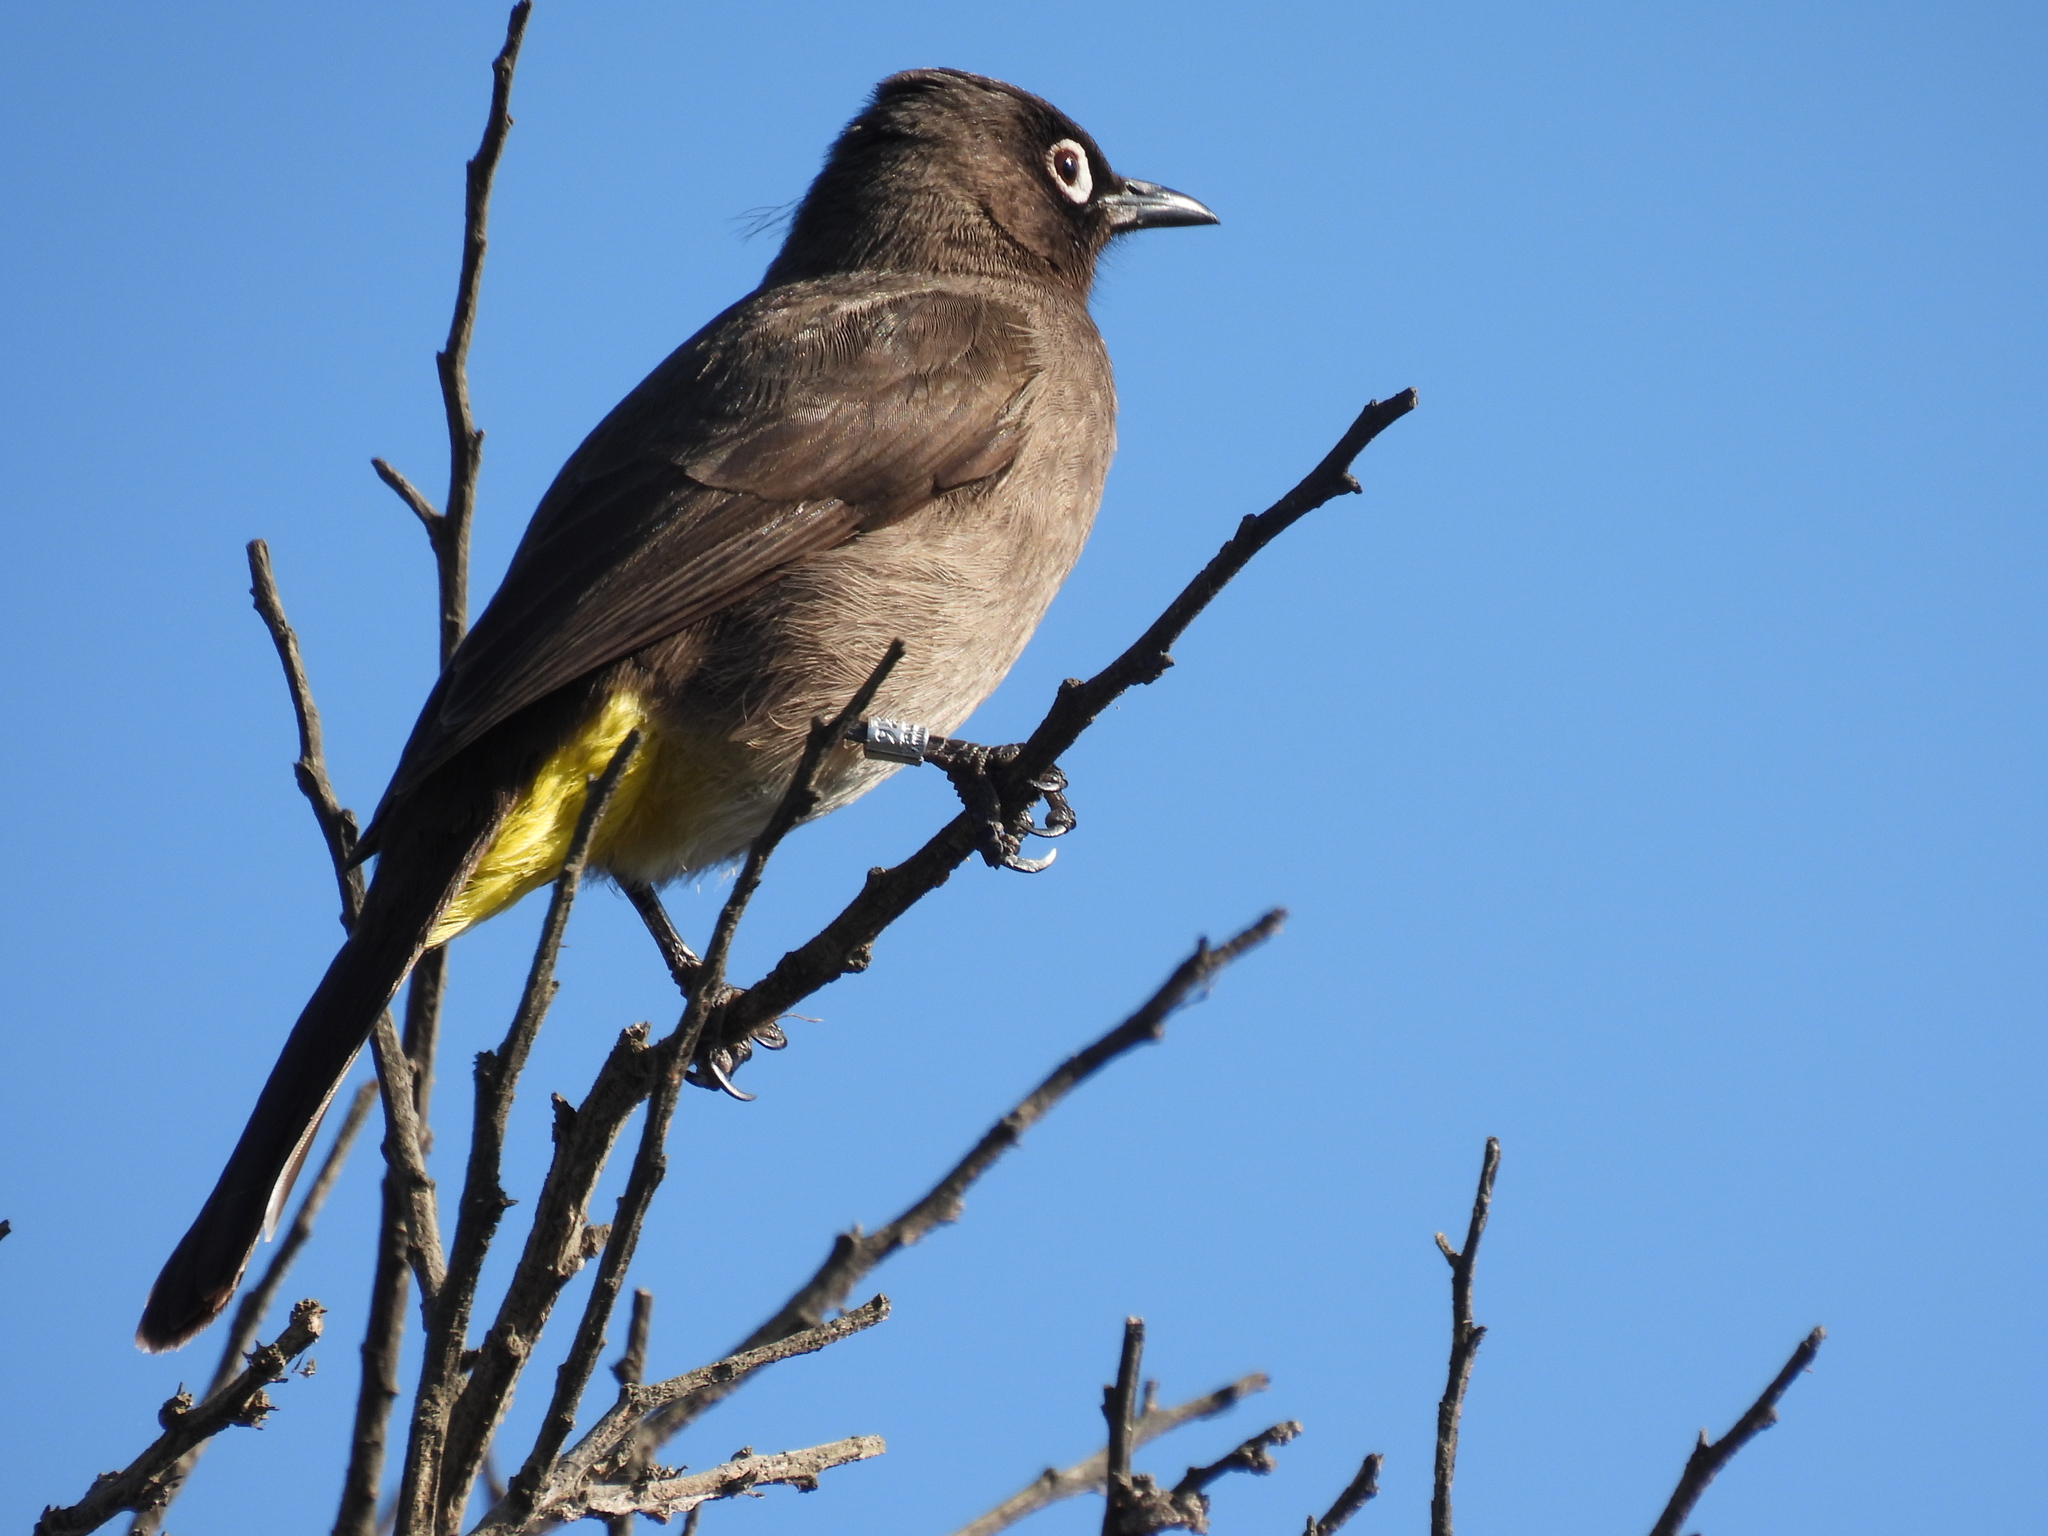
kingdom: Animalia
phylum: Chordata
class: Aves
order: Passeriformes
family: Pycnonotidae
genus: Pycnonotus
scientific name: Pycnonotus capensis
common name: Cape bulbul
